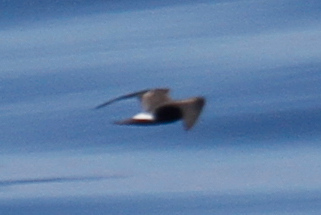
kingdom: Animalia
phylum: Chordata
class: Aves
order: Procellariiformes
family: Hydrobatidae
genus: Oceanodroma
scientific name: Oceanodroma leucorhoa
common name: Leach's storm-petrel
